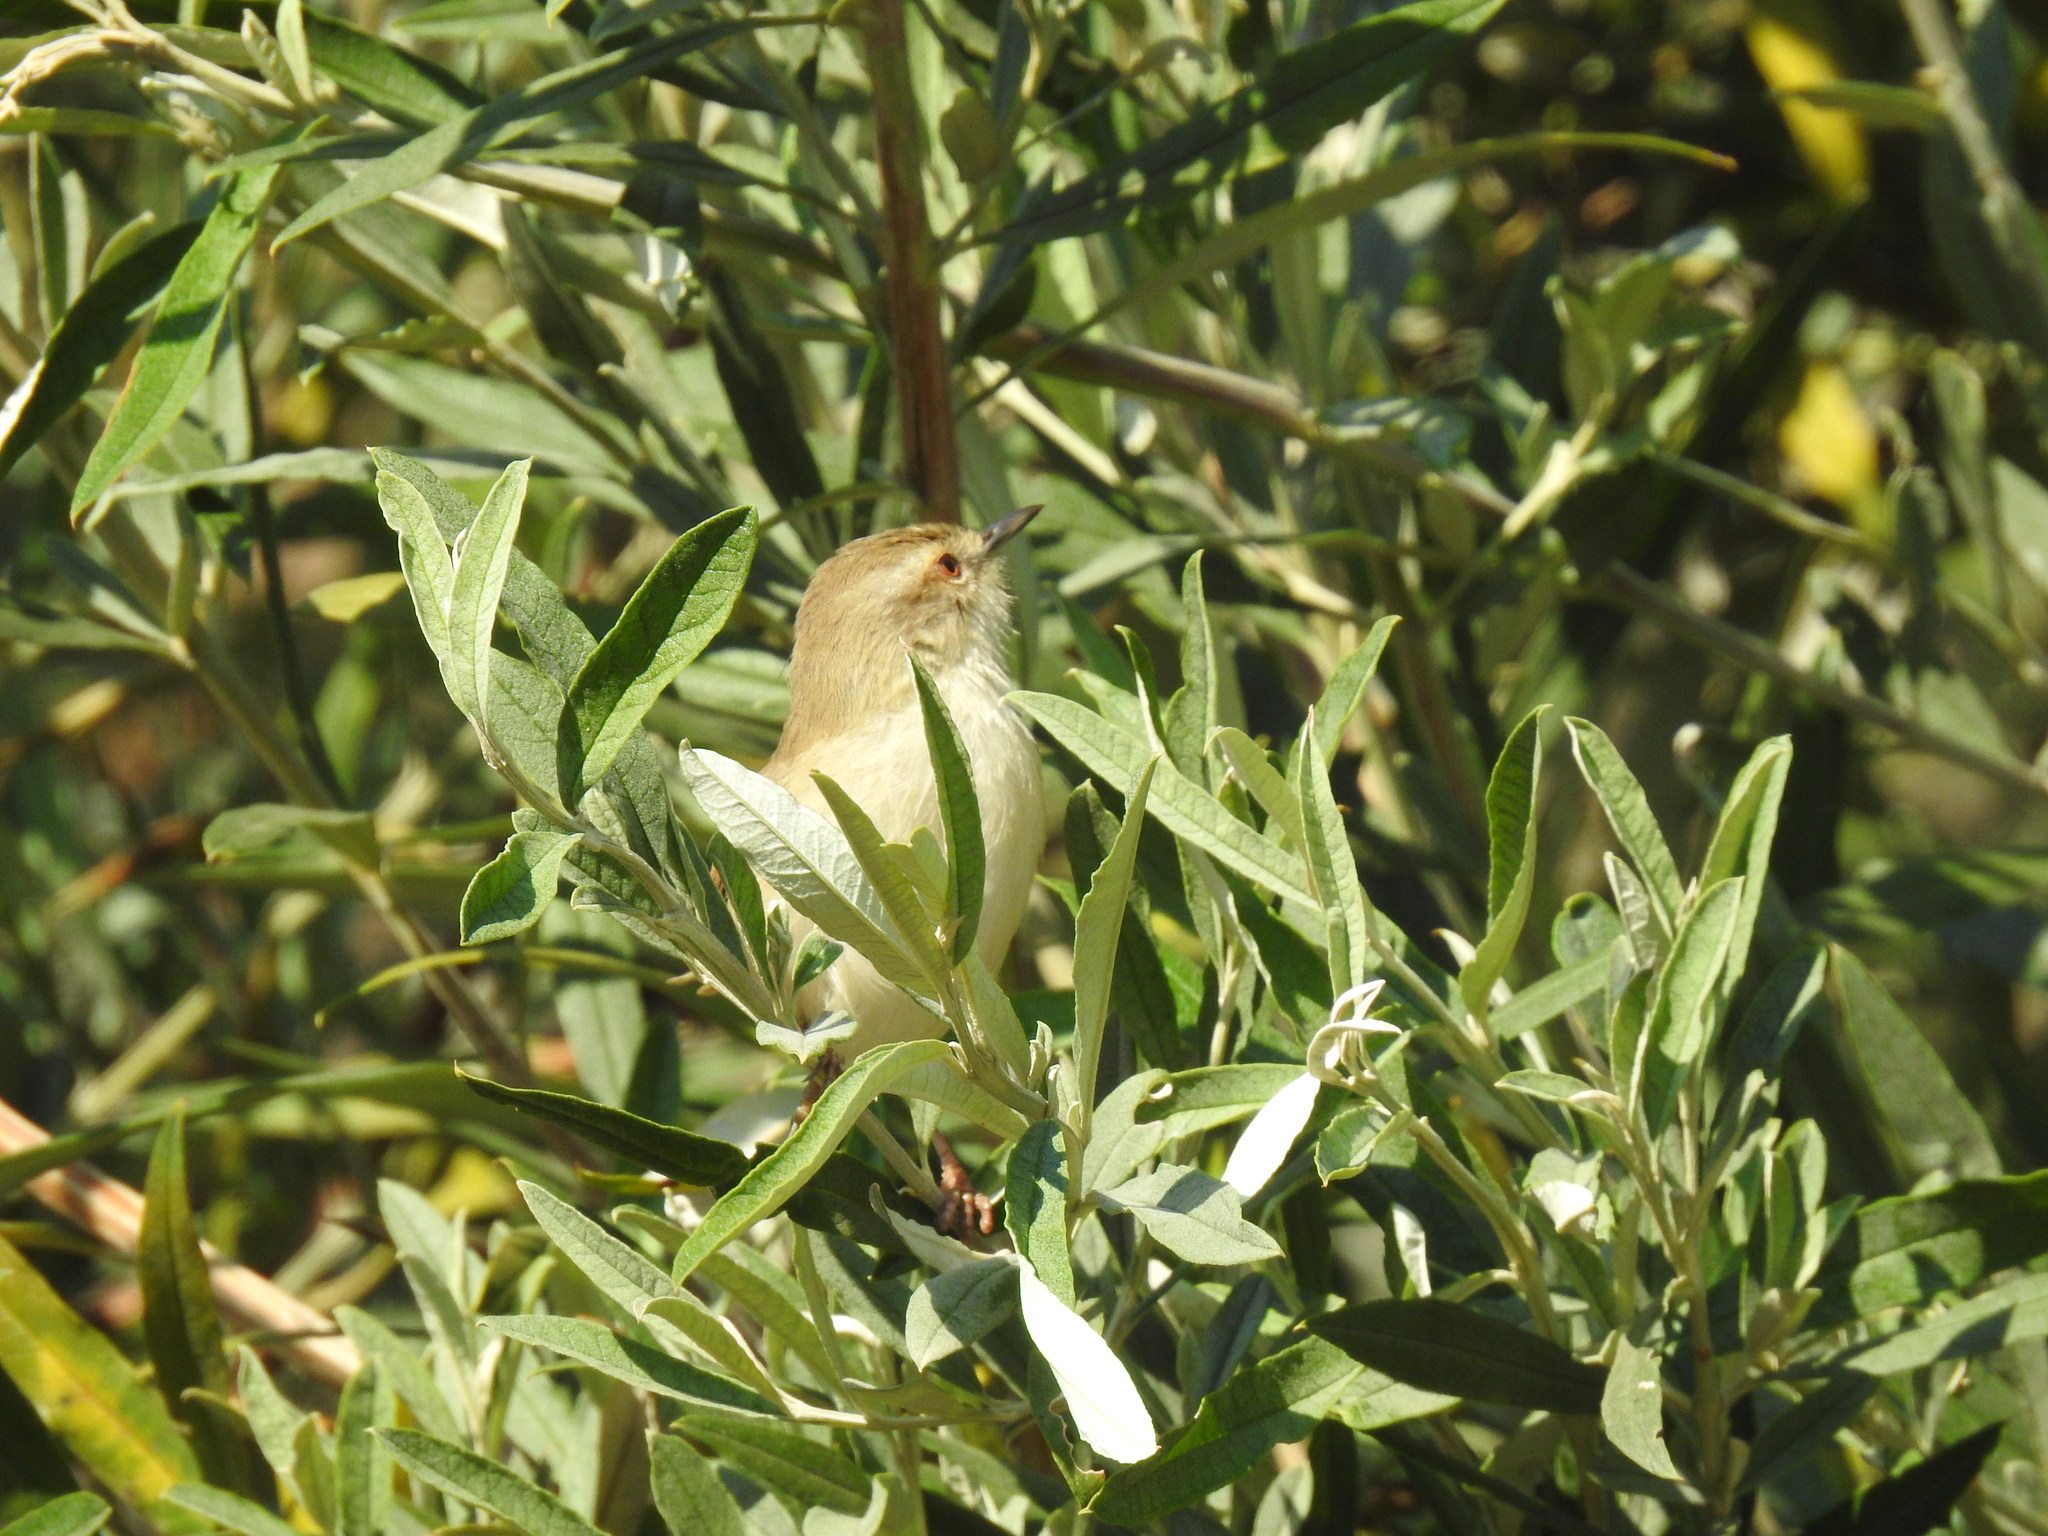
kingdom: Animalia
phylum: Chordata
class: Aves
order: Passeriformes
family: Cisticolidae
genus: Prinia
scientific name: Prinia subflava
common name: Tawny-flanked prinia
